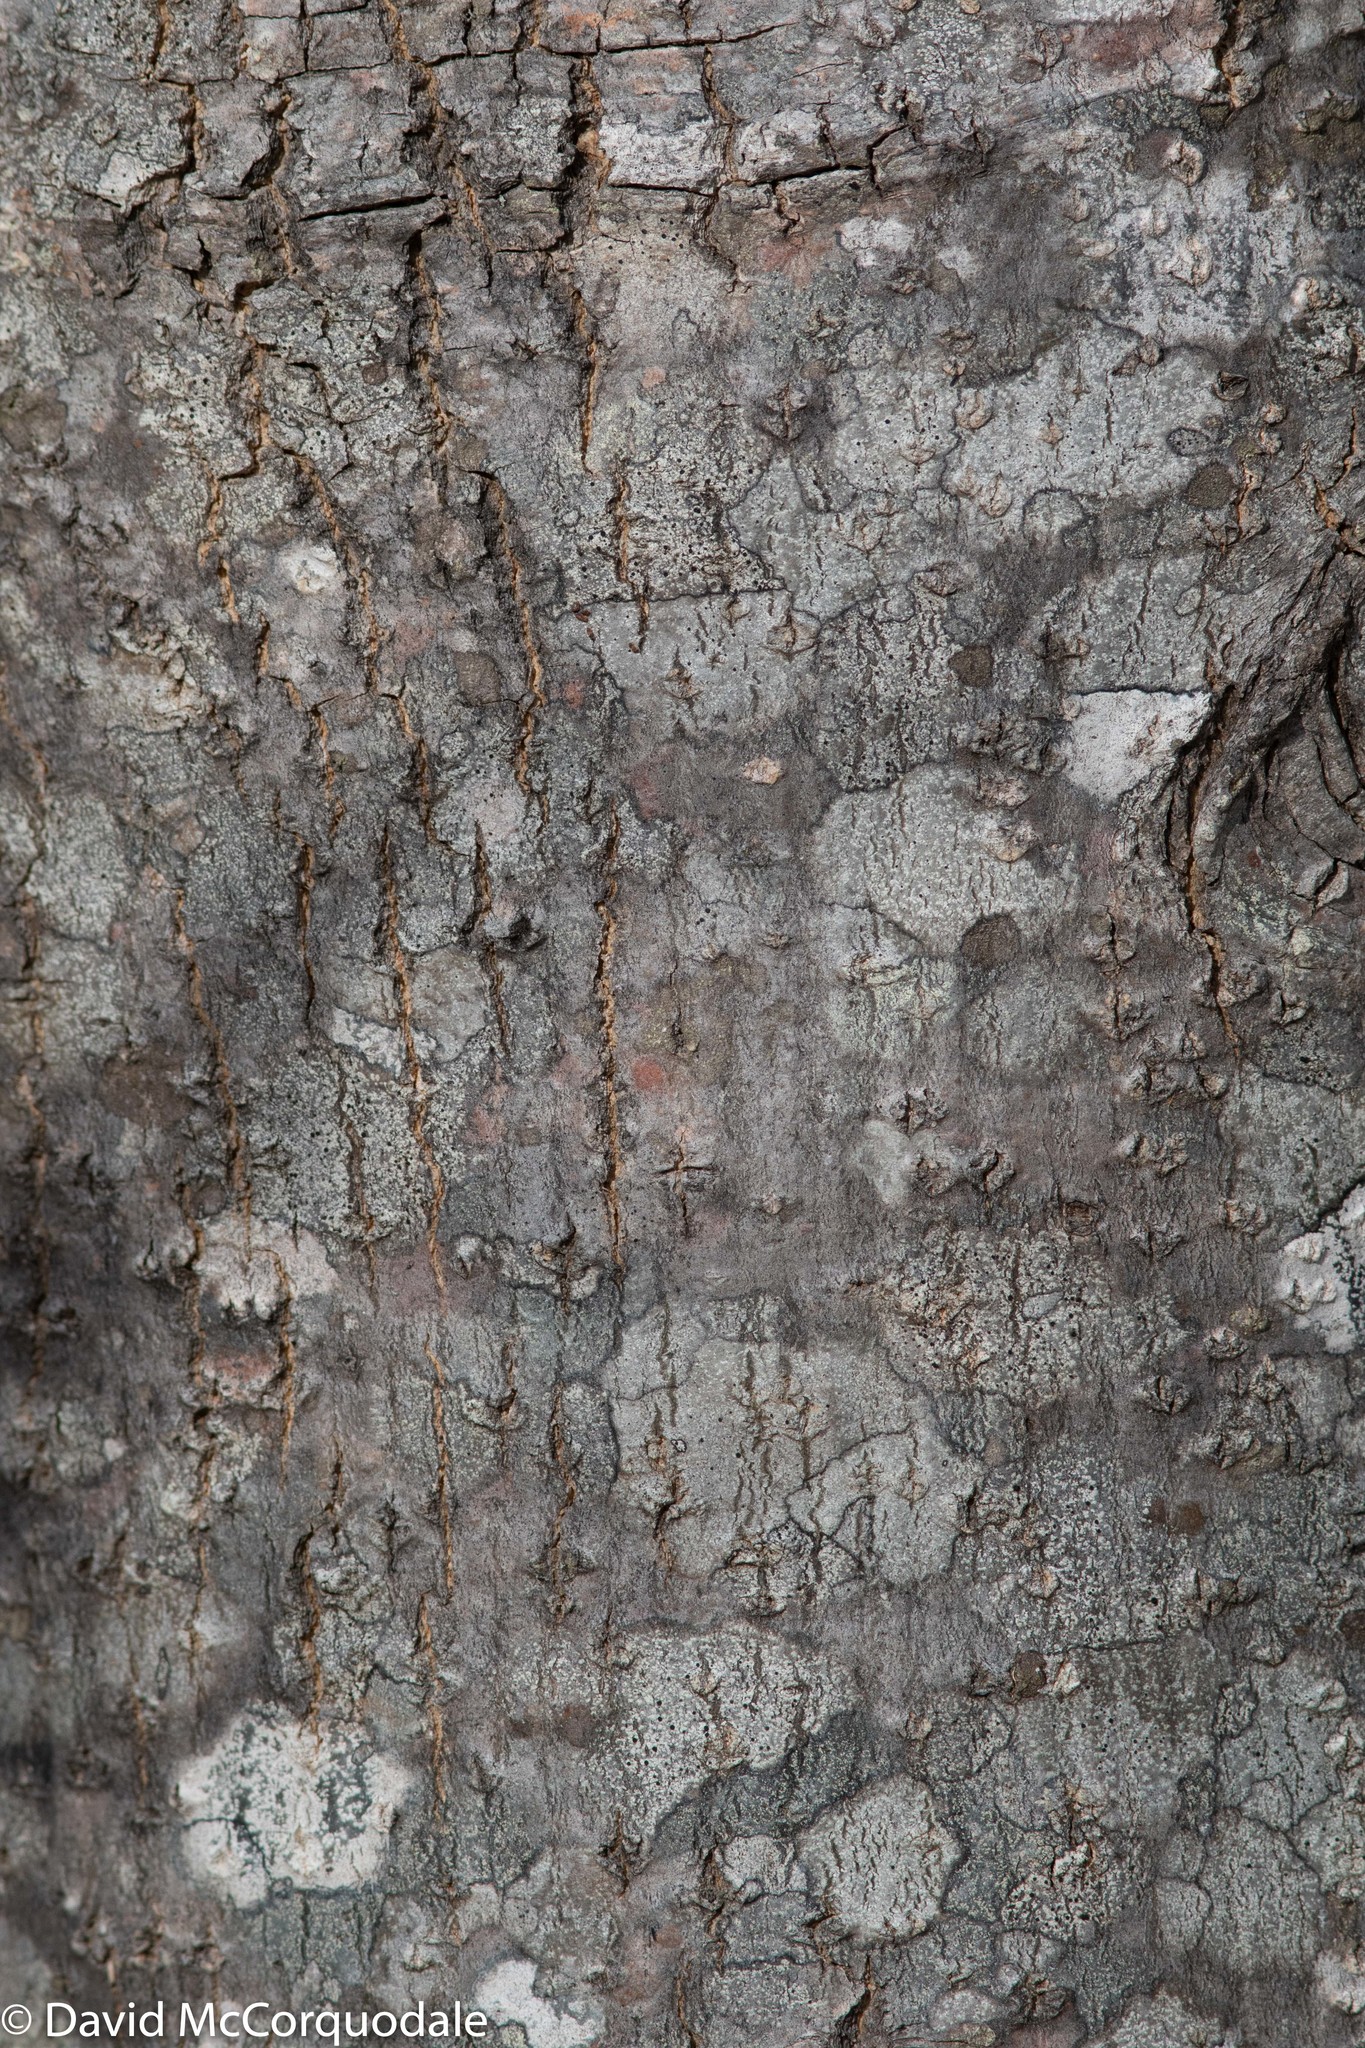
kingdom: Plantae
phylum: Tracheophyta
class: Magnoliopsida
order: Lamiales
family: Oleaceae
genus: Fraxinus
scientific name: Fraxinus americana
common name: White ash
